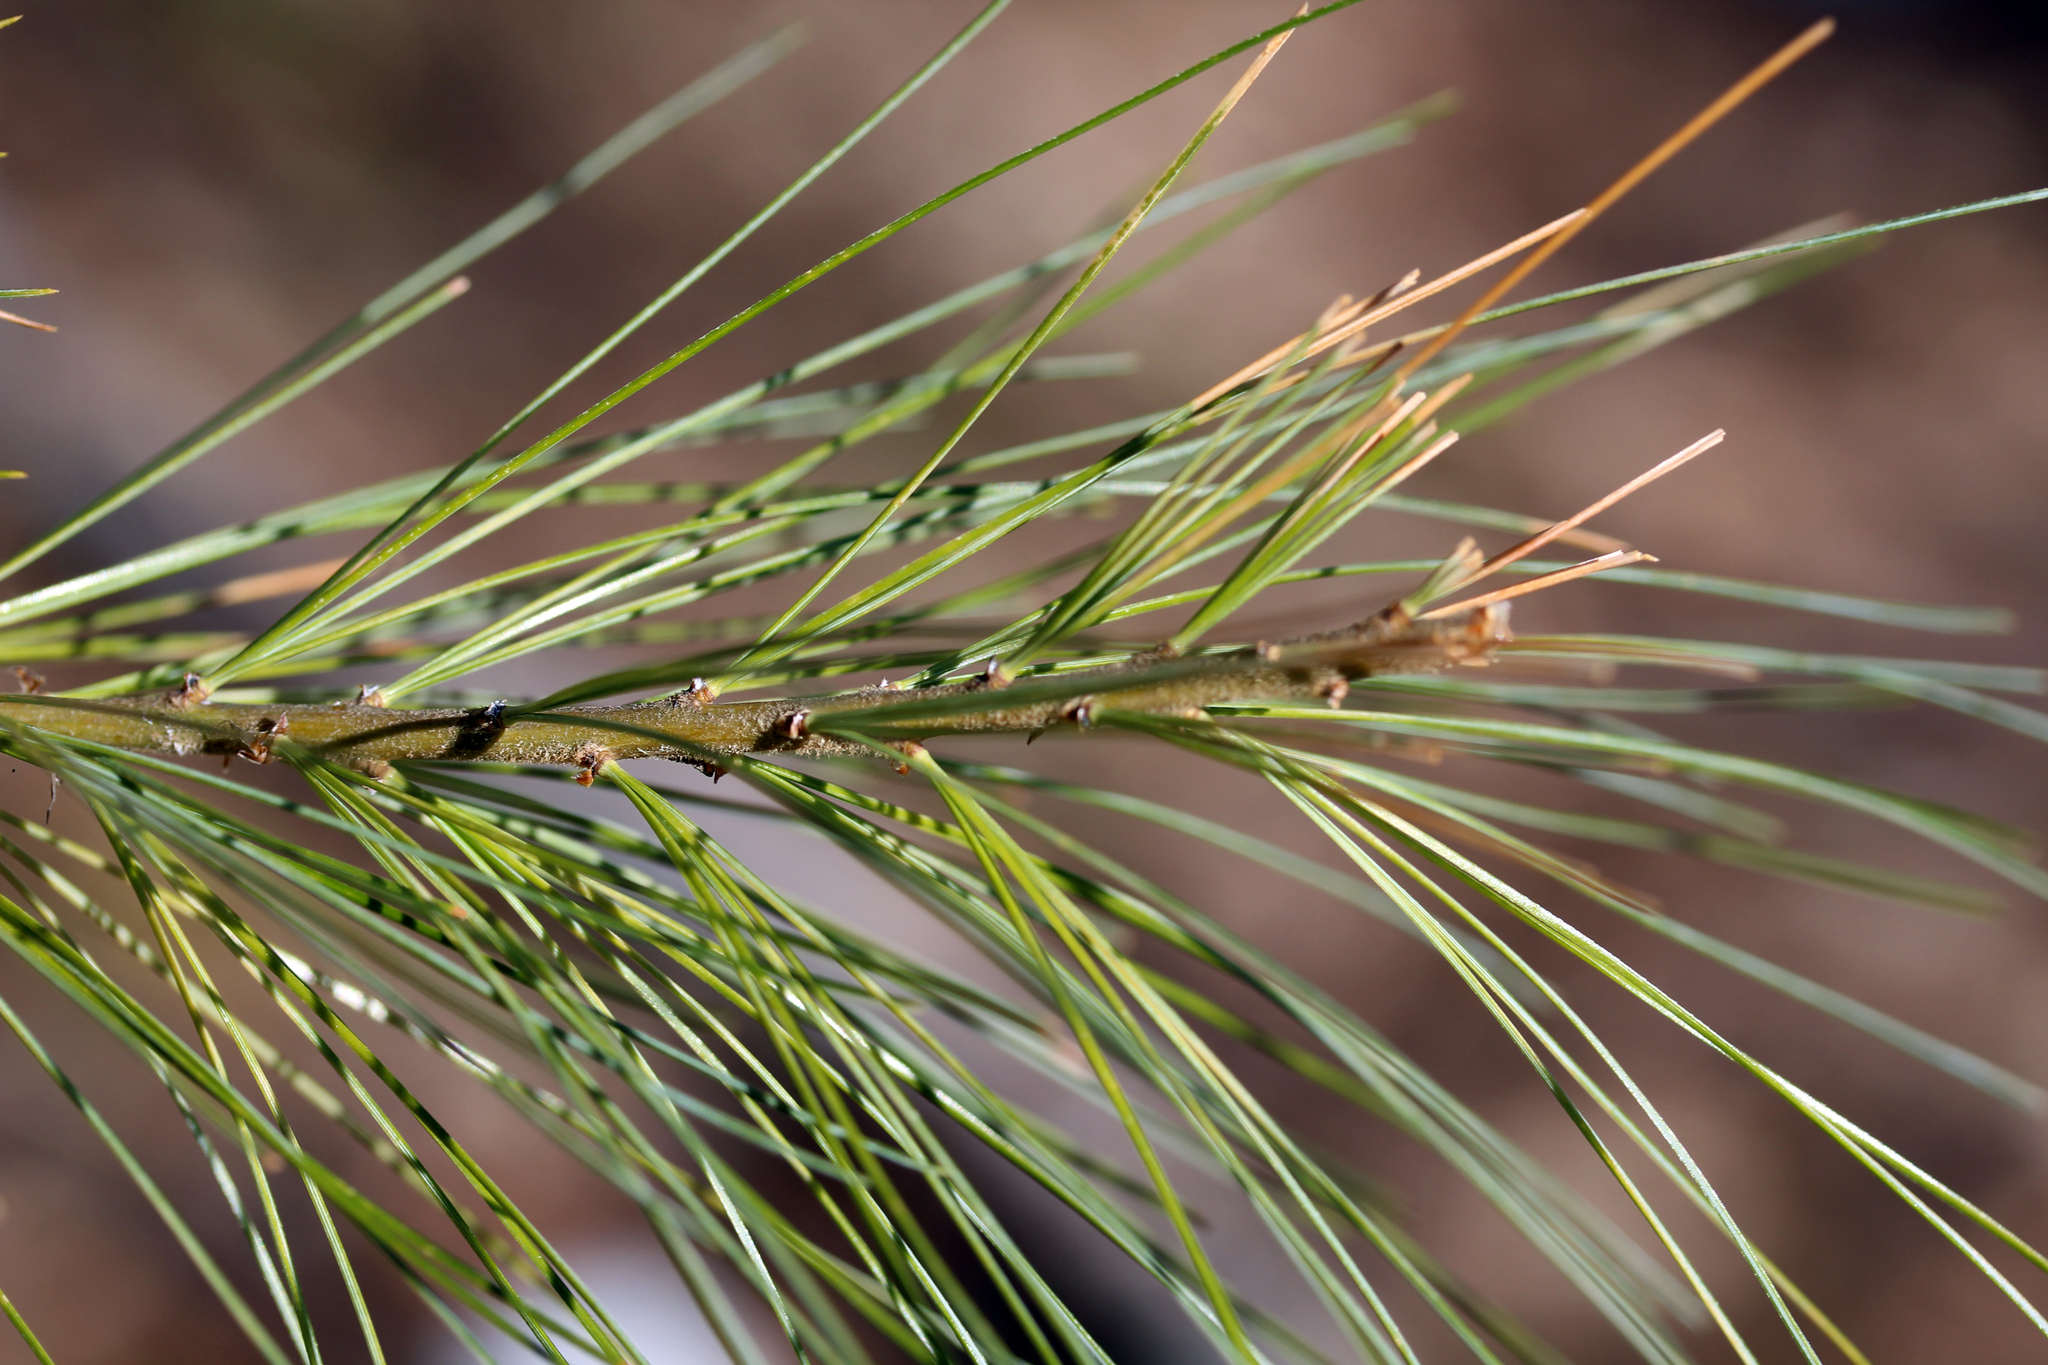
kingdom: Plantae
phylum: Tracheophyta
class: Pinopsida
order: Pinales
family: Pinaceae
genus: Pinus
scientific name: Pinus strobus
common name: Weymouth pine
